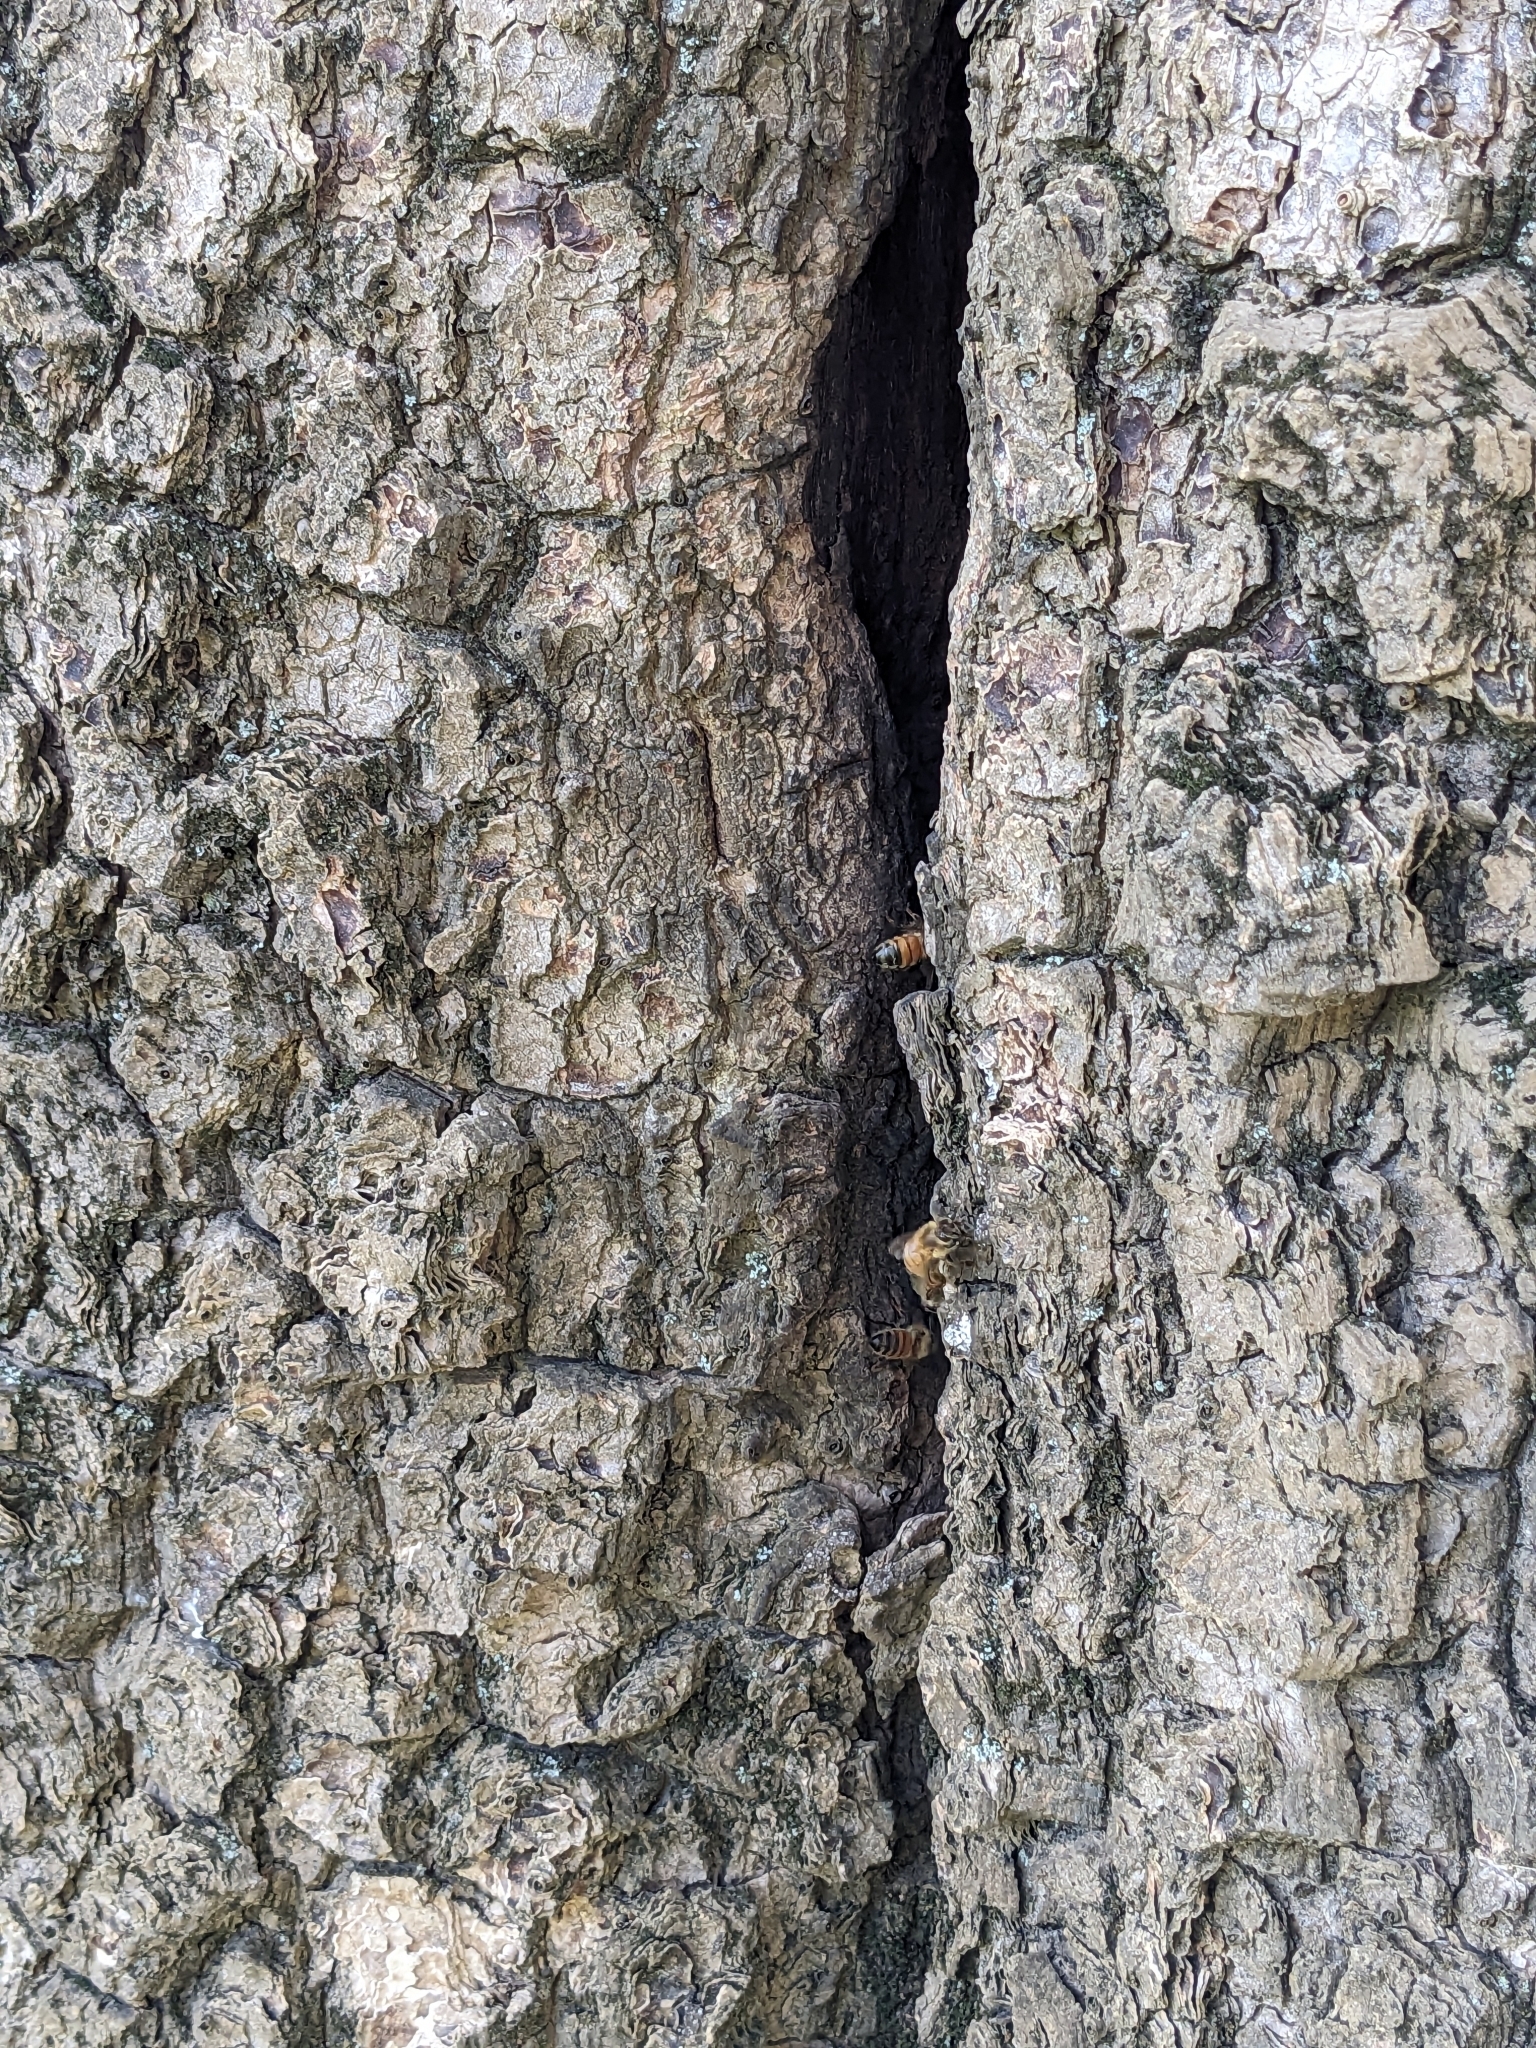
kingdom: Animalia
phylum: Arthropoda
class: Insecta
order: Hymenoptera
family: Apidae
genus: Apis
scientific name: Apis mellifera
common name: Honey bee
